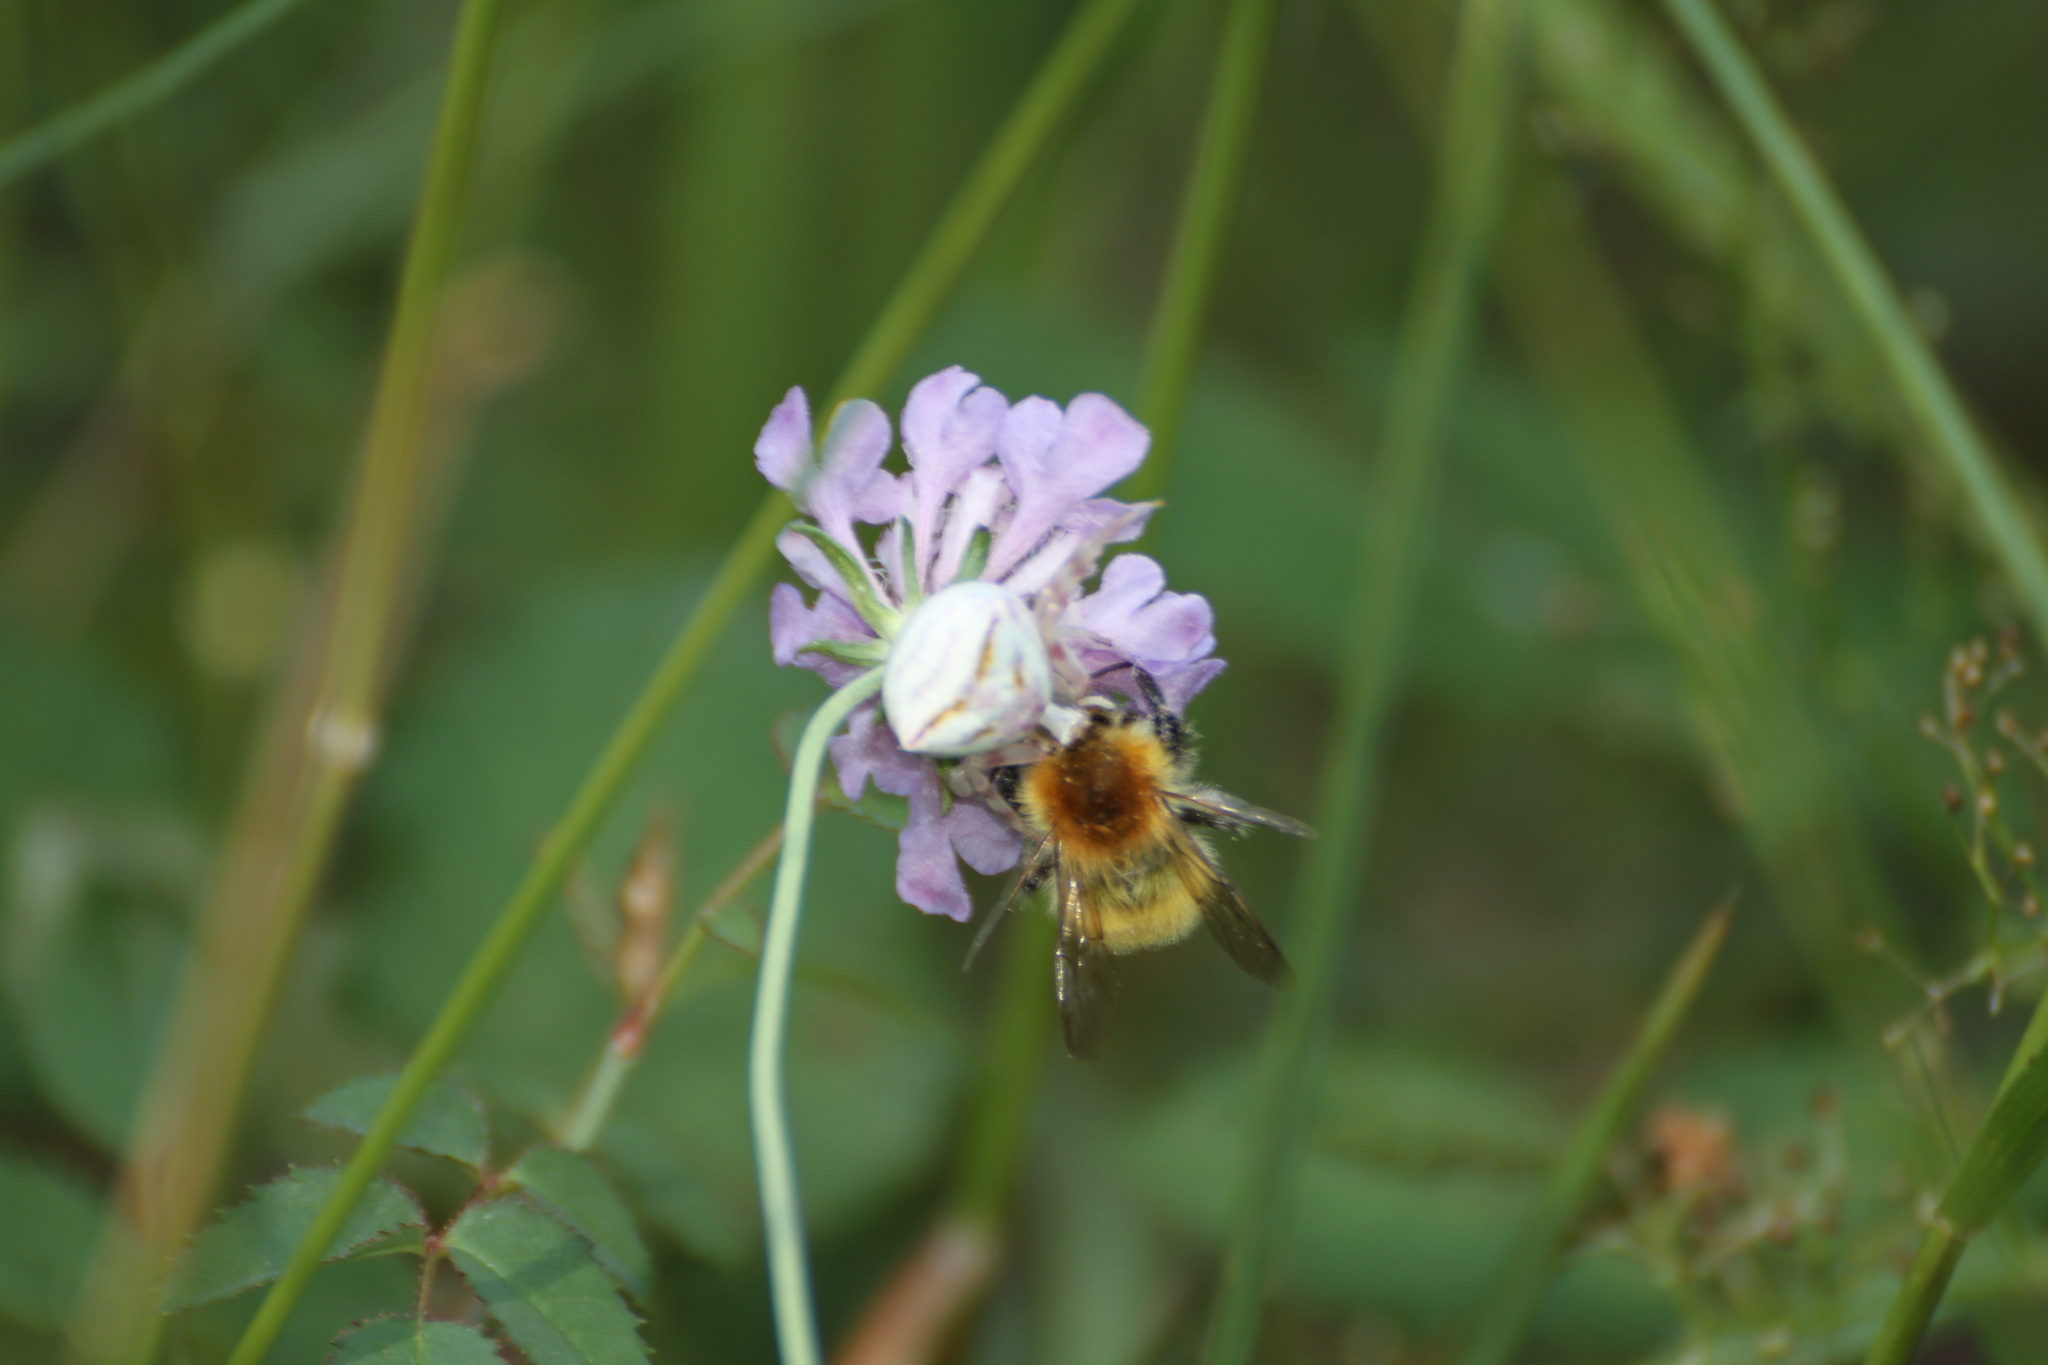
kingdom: Animalia
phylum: Arthropoda
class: Arachnida
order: Araneae
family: Thomisidae
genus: Thomisus
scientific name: Thomisus onustus
